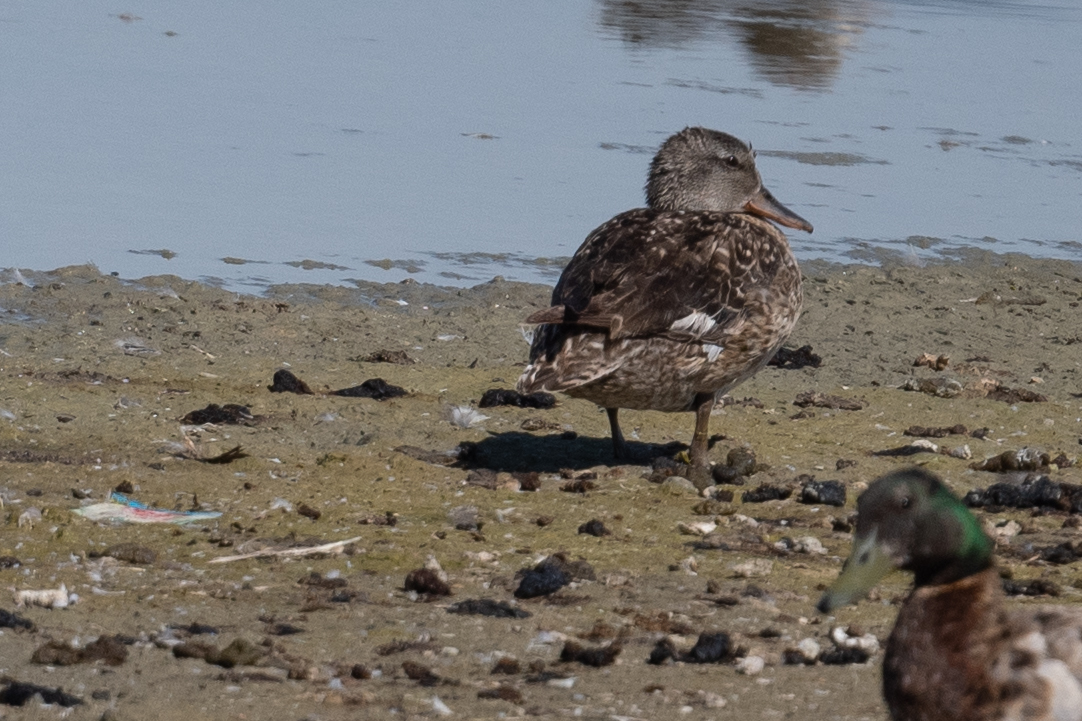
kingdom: Animalia
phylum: Chordata
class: Aves
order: Anseriformes
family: Anatidae
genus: Mareca
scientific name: Mareca strepera
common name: Gadwall
